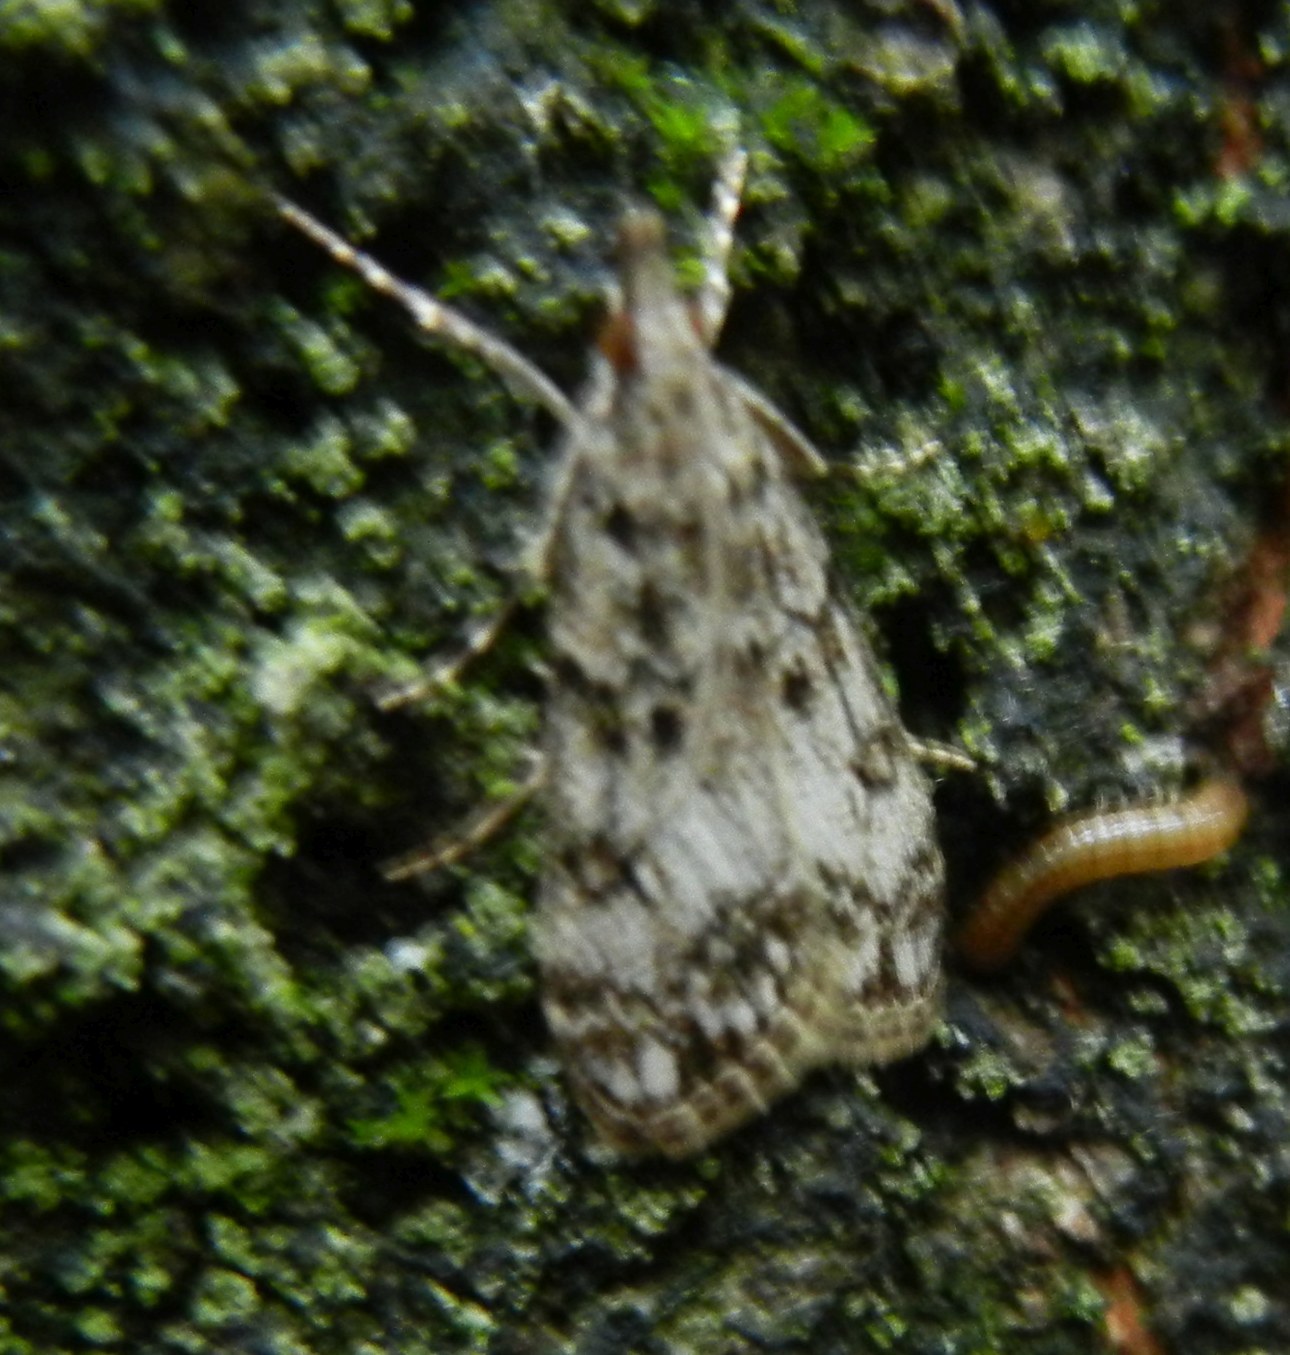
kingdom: Animalia
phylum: Arthropoda
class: Insecta
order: Lepidoptera
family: Crambidae
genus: Eudonia
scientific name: Eudonia lacustrata
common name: Little grey
